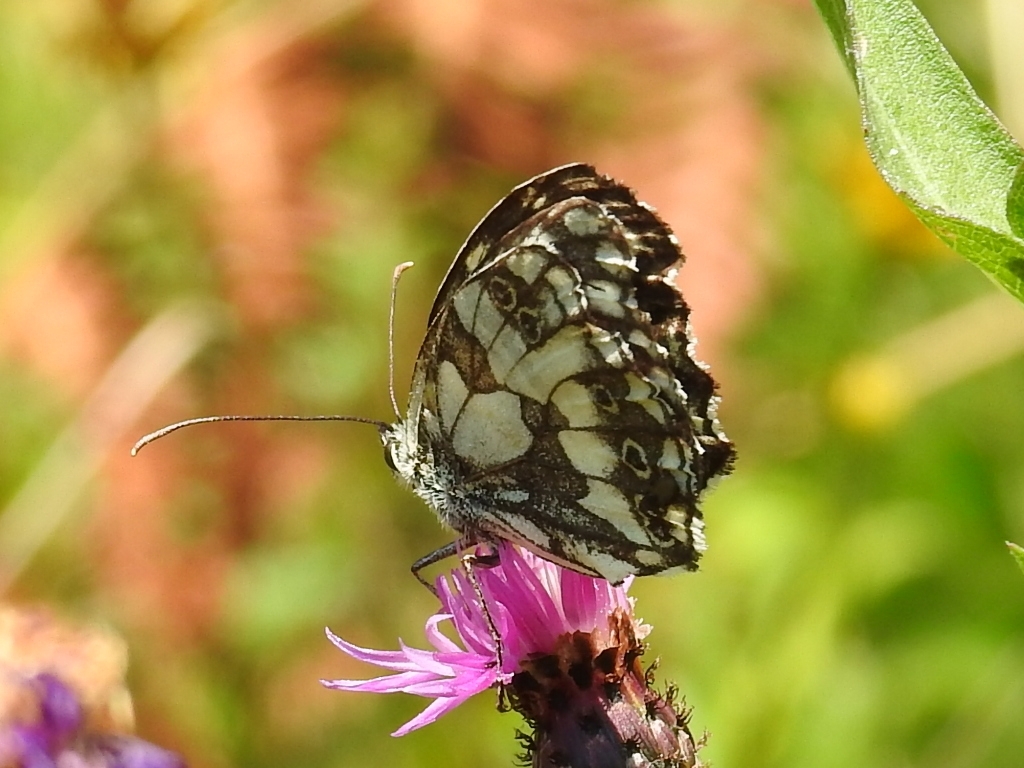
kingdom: Animalia
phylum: Arthropoda
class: Insecta
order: Lepidoptera
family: Nymphalidae
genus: Melanargia
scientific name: Melanargia galathea
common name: Marbled white
